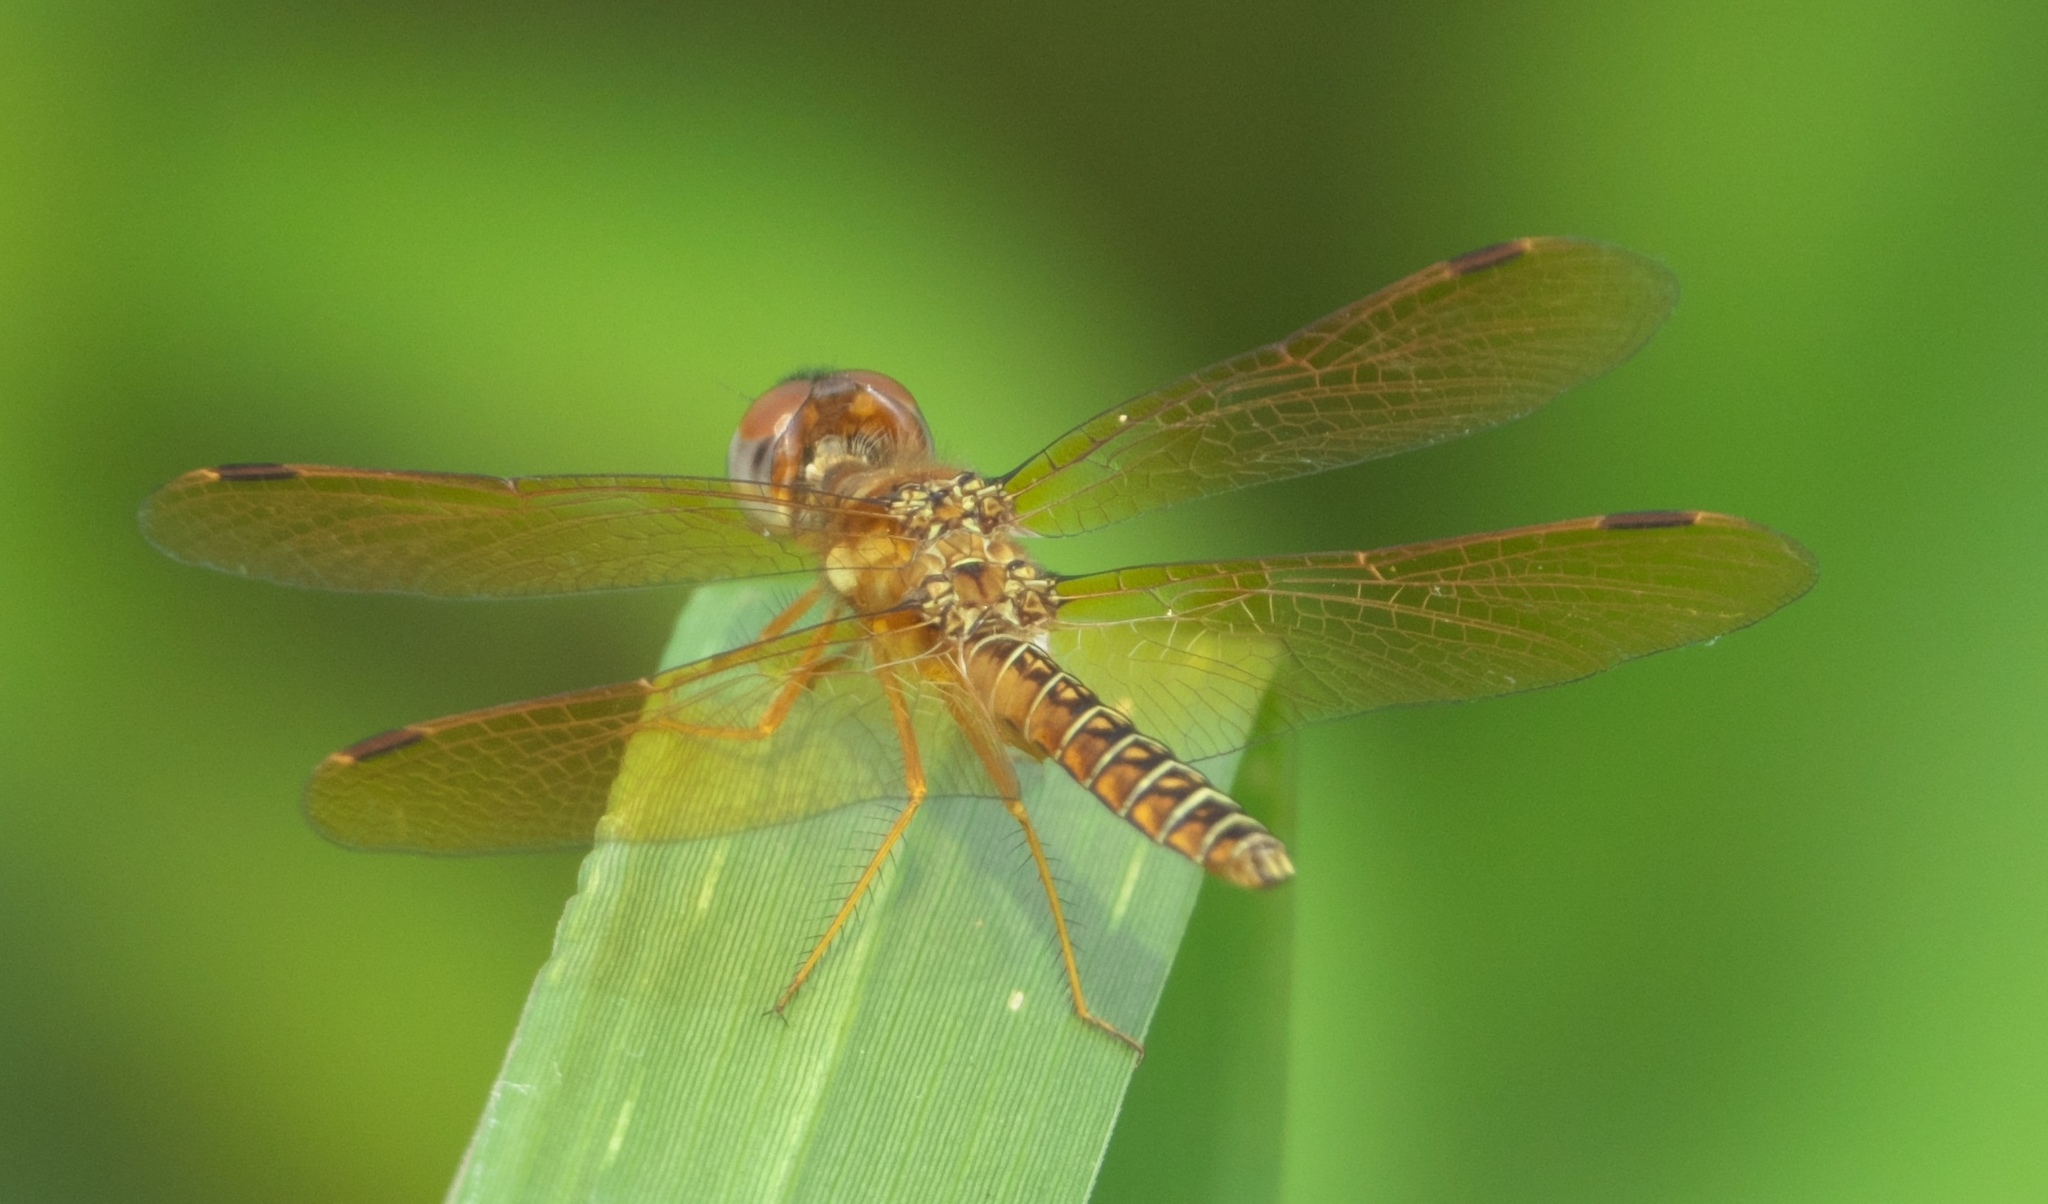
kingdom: Animalia
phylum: Arthropoda
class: Insecta
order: Odonata
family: Libellulidae
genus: Perithemis
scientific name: Perithemis tenera
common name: Eastern amberwing
